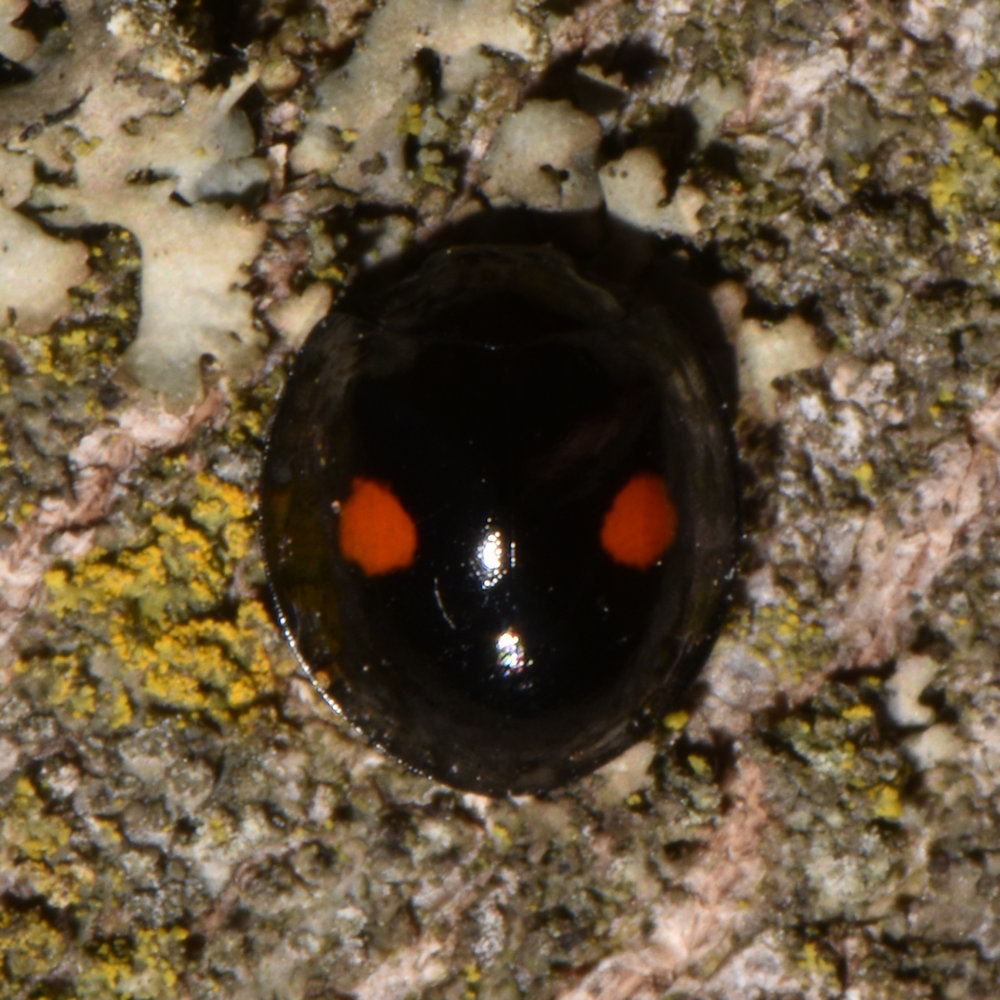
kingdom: Animalia
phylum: Arthropoda
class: Insecta
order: Coleoptera
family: Coccinellidae
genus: Chilocorus
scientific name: Chilocorus stigma
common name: Twicestabbed lady beetle
